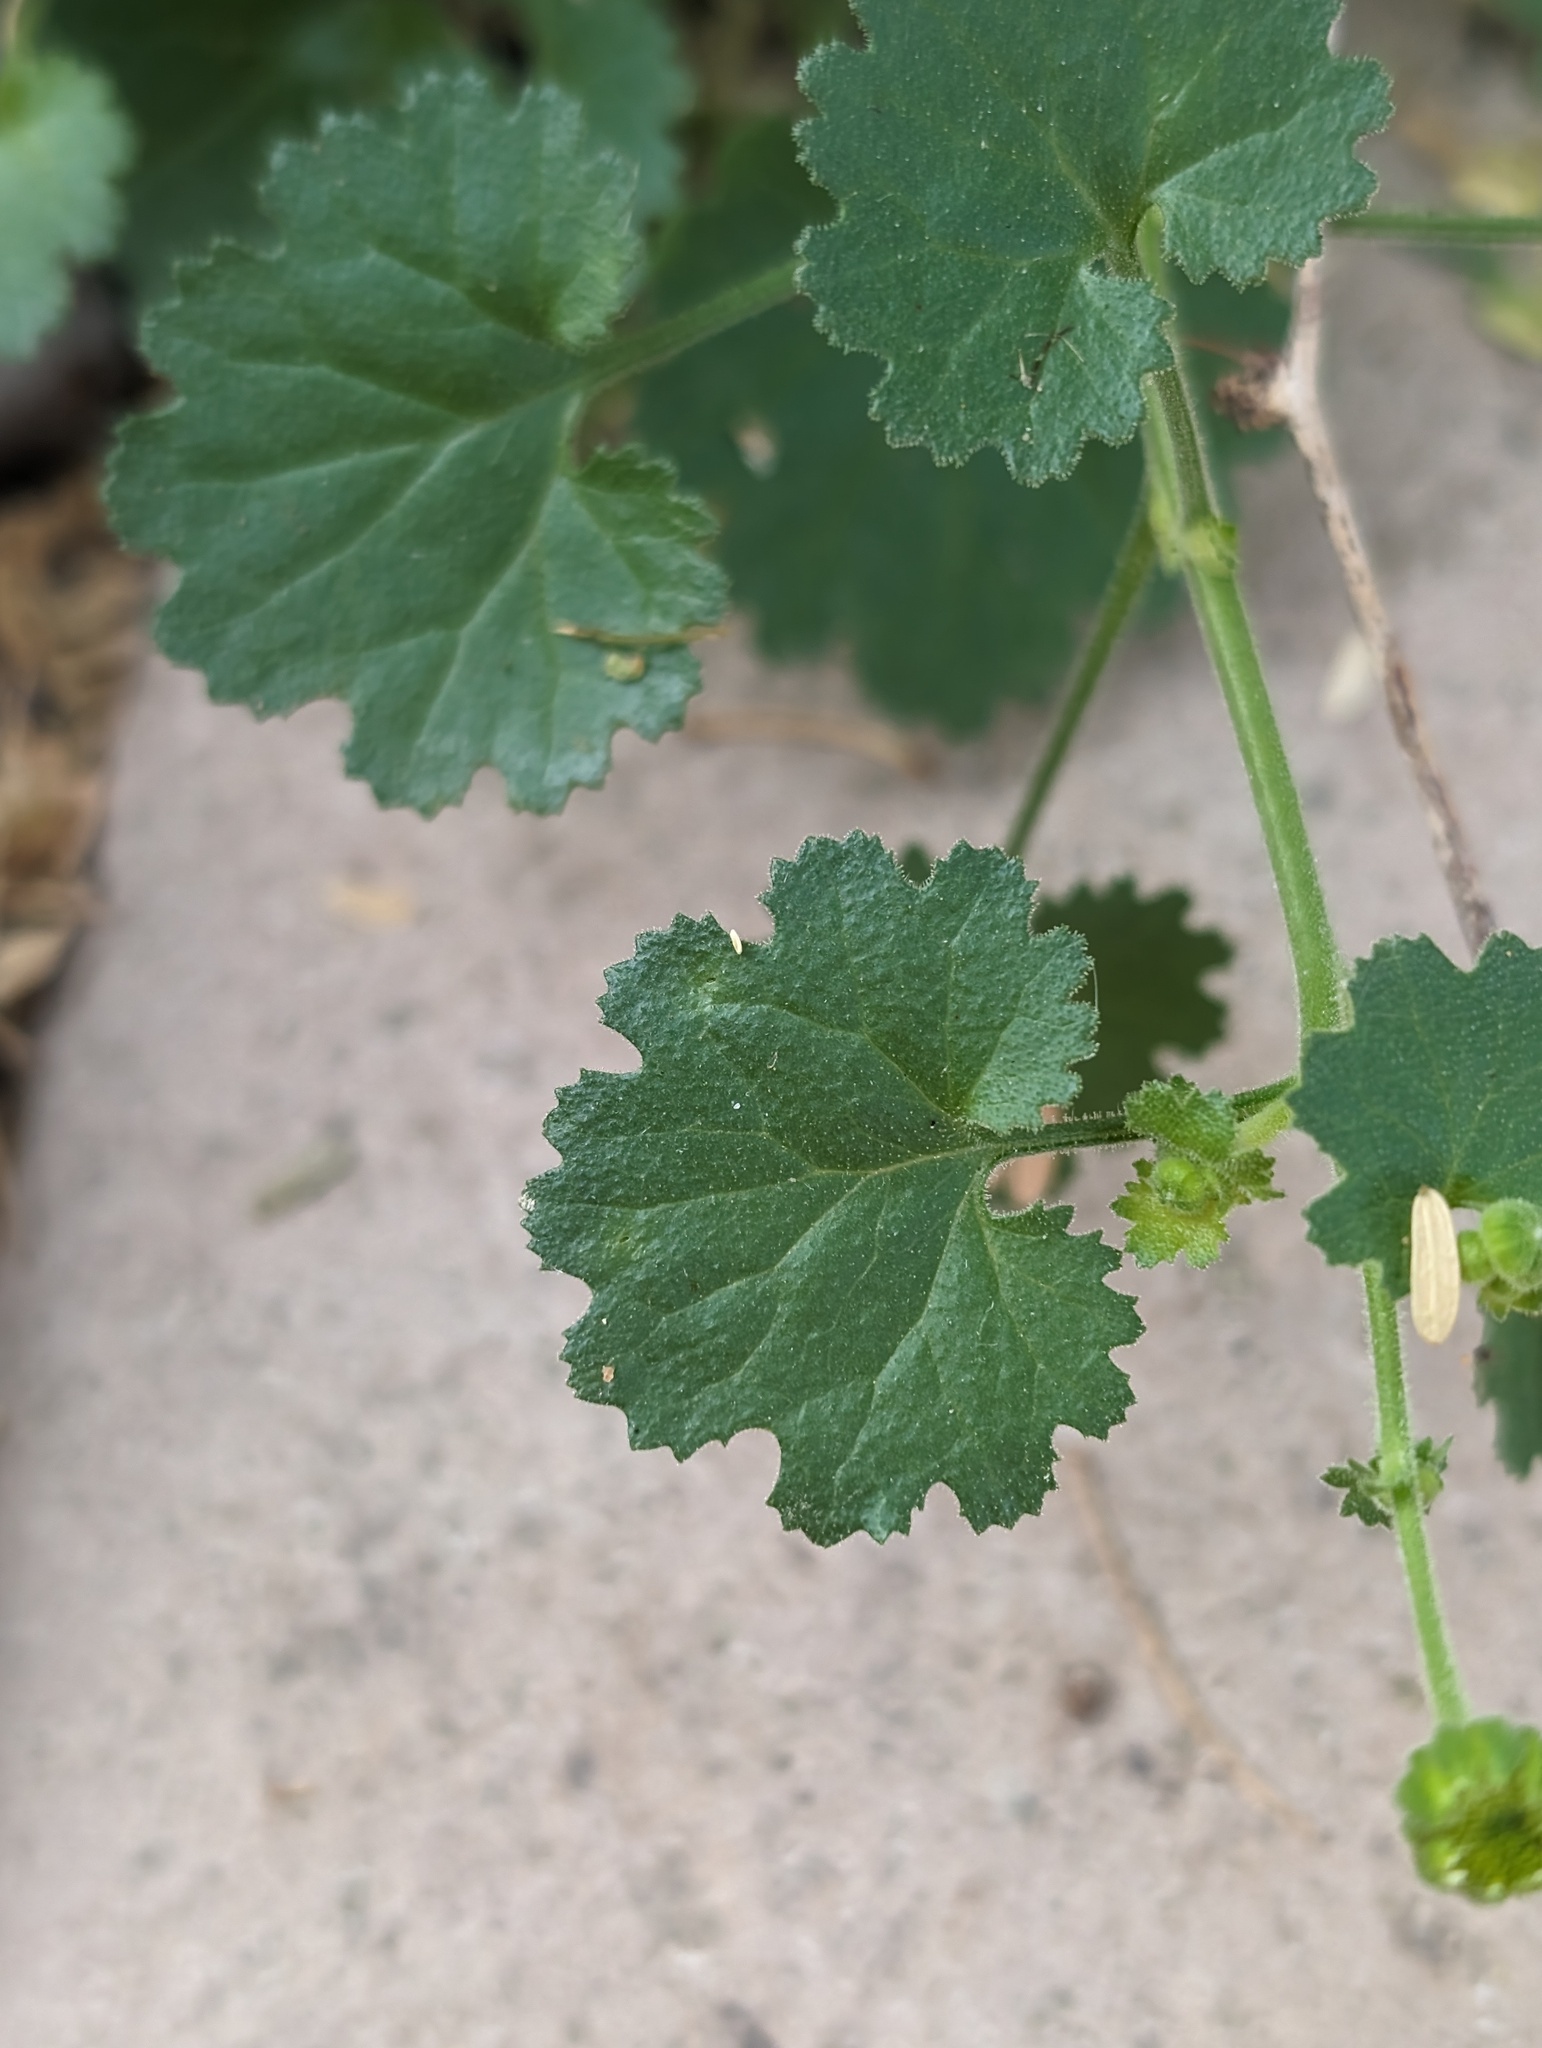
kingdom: Plantae
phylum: Tracheophyta
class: Magnoliopsida
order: Asterales
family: Asteraceae
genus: Perityle
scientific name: Perityle brandegeeana
